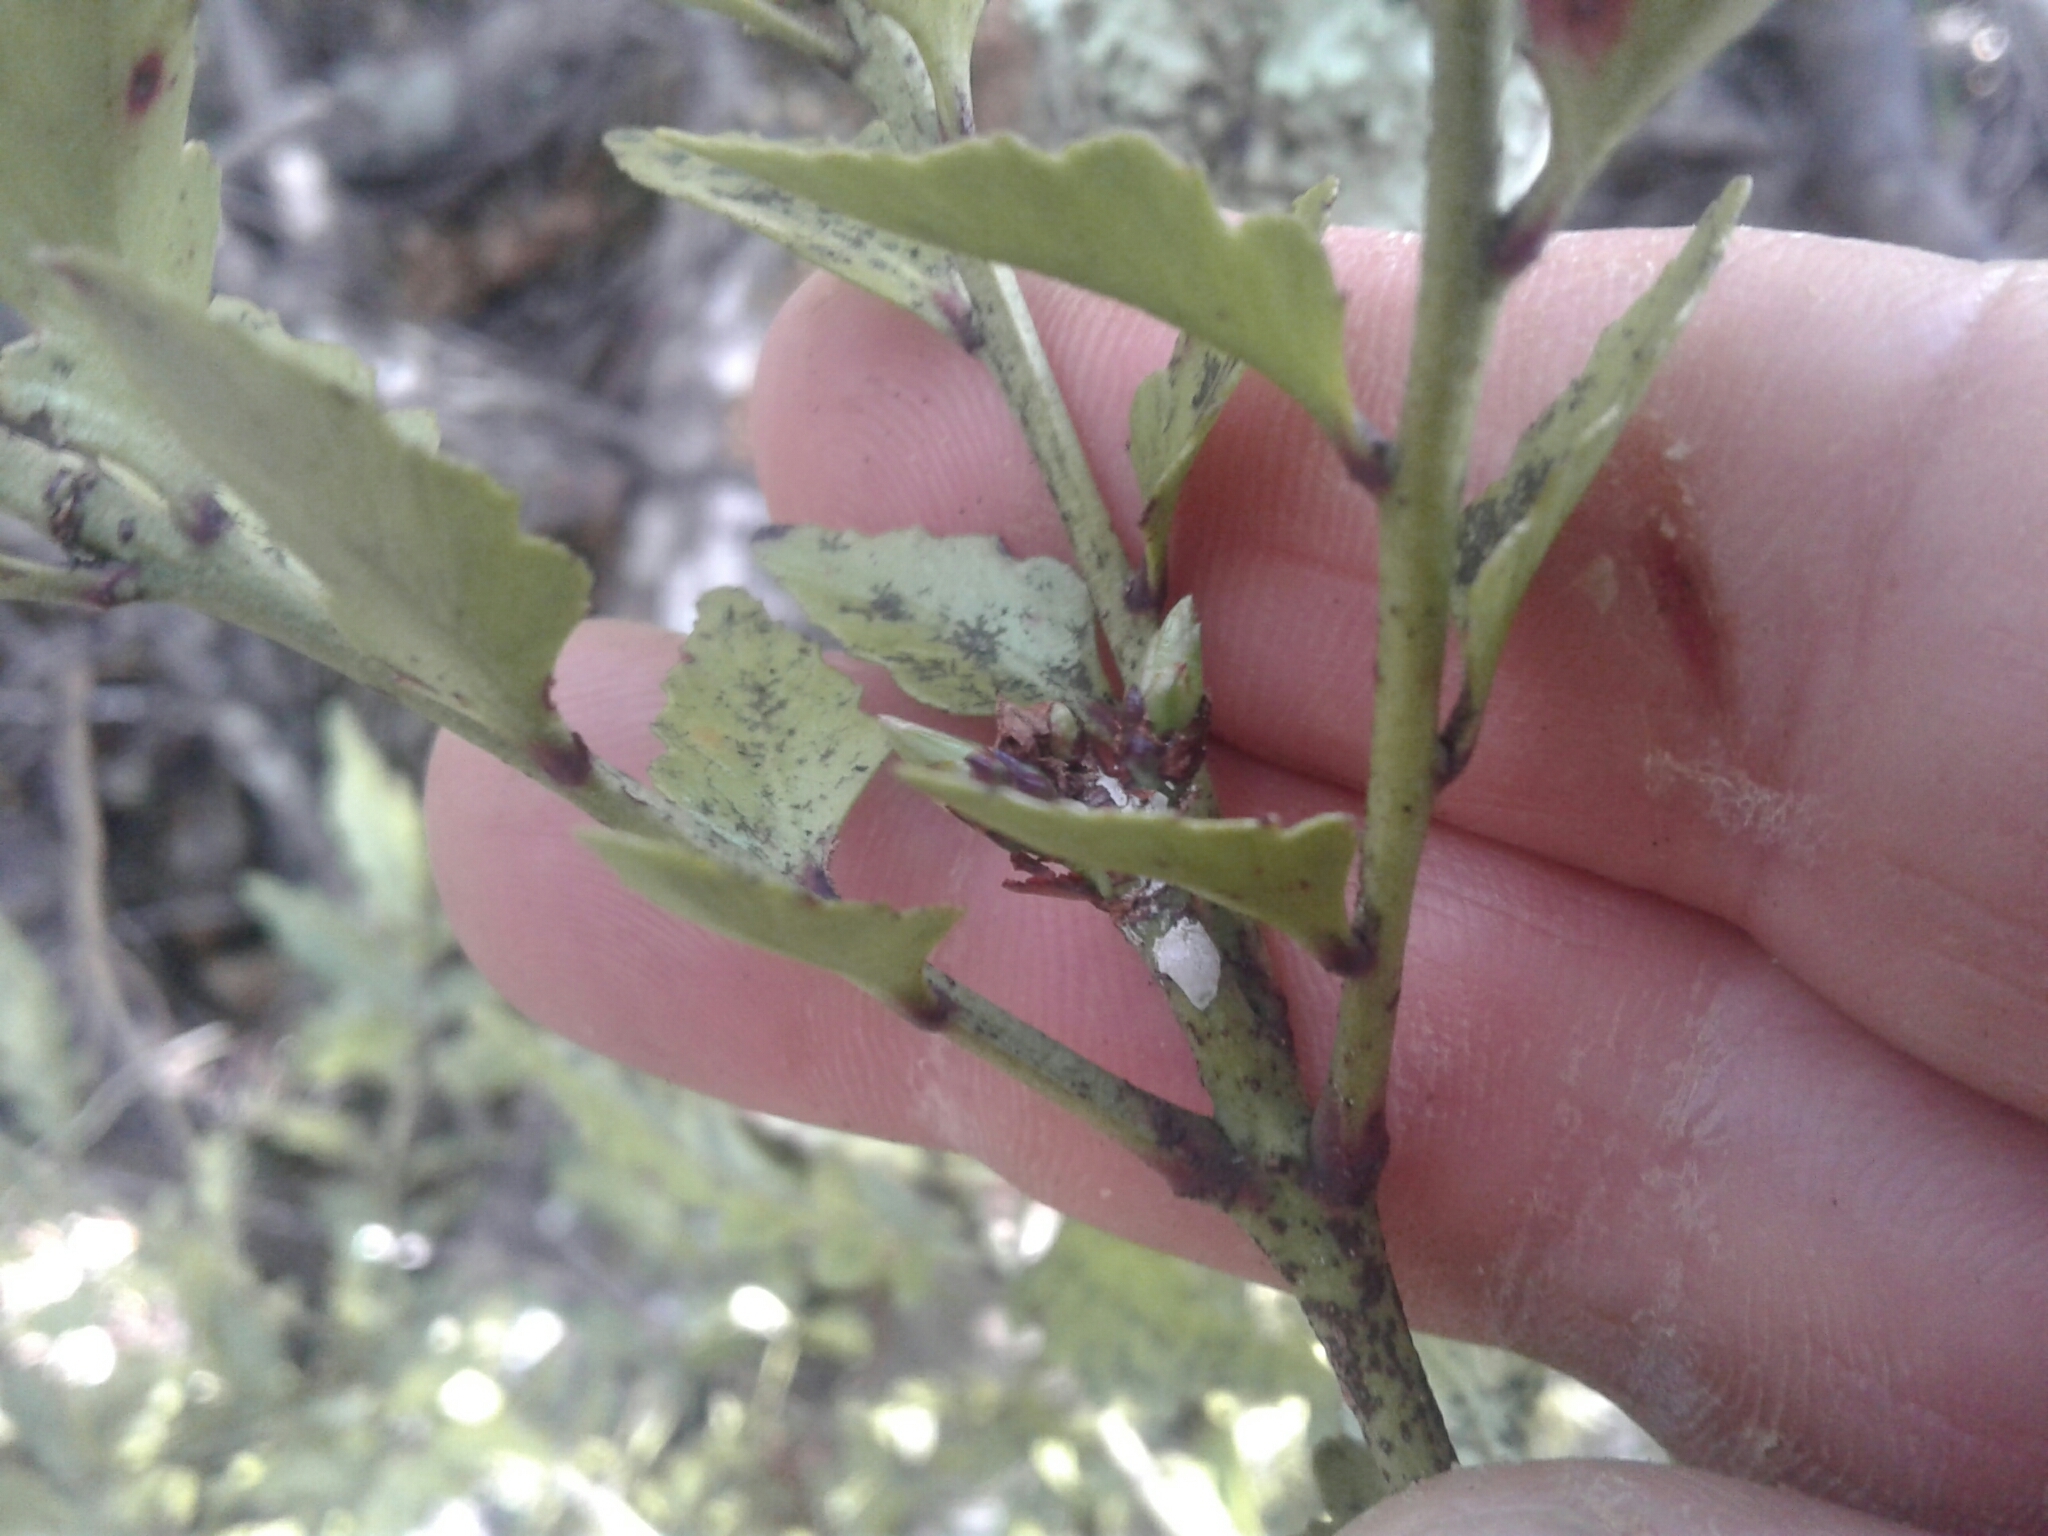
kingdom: Plantae
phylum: Tracheophyta
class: Pinopsida
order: Pinales
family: Phyllocladaceae
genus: Phyllocladus
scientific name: Phyllocladus trichomanoides
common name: Celery pine
